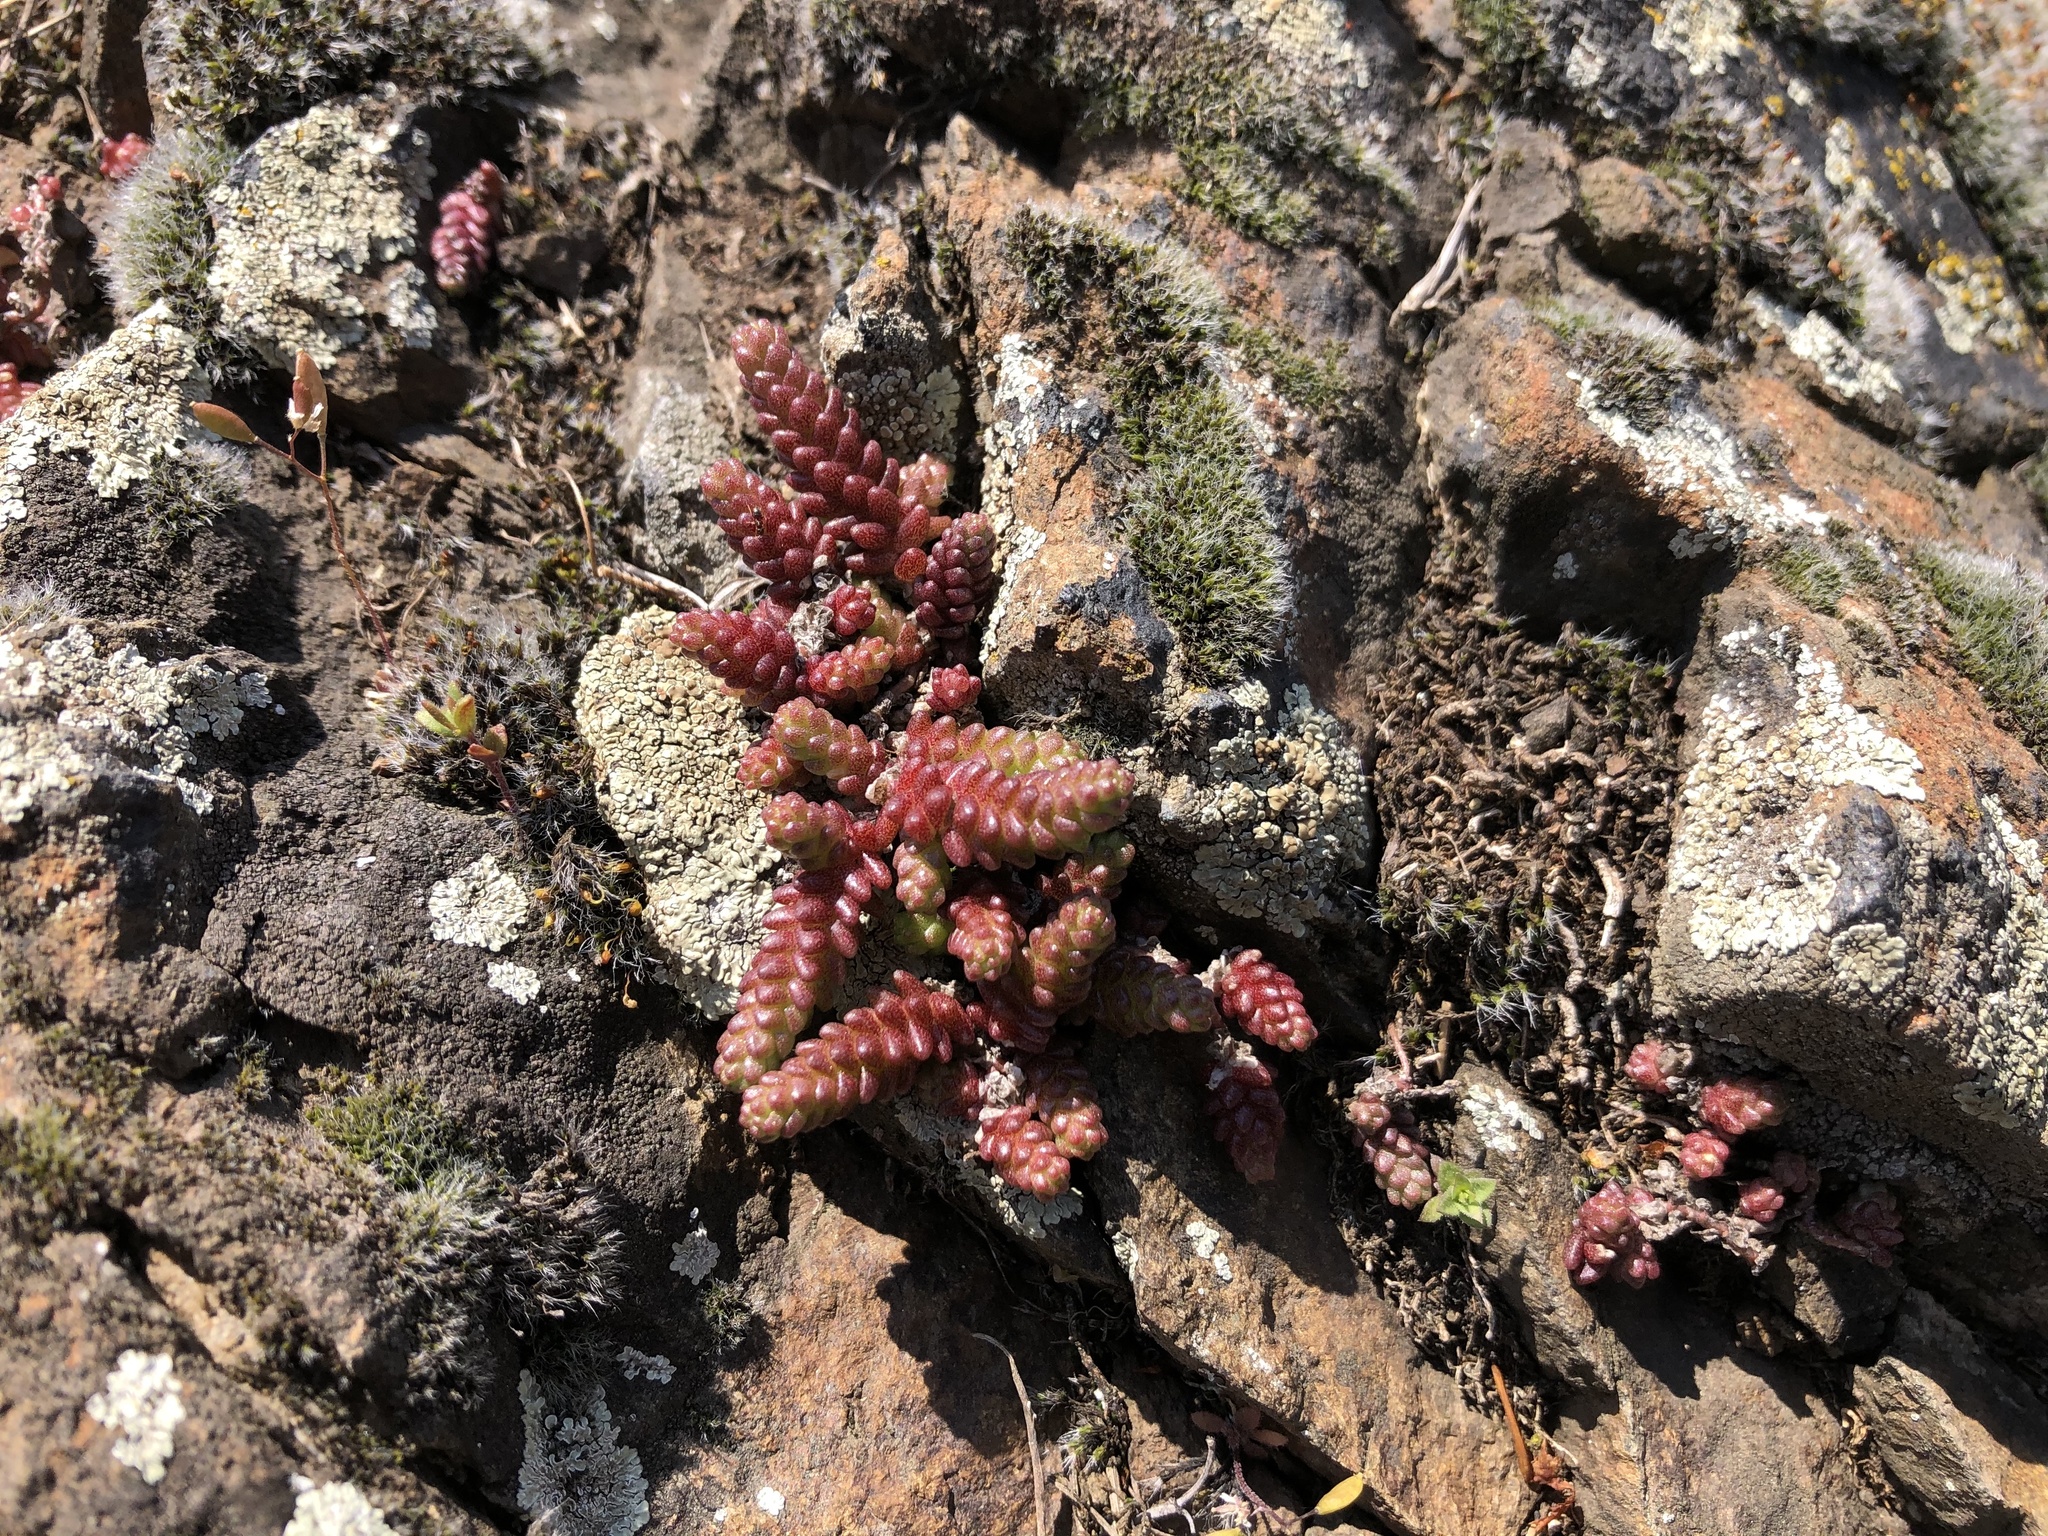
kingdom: Plantae
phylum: Tracheophyta
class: Magnoliopsida
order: Saxifragales
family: Crassulaceae
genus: Sedum
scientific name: Sedum acre
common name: Biting stonecrop
